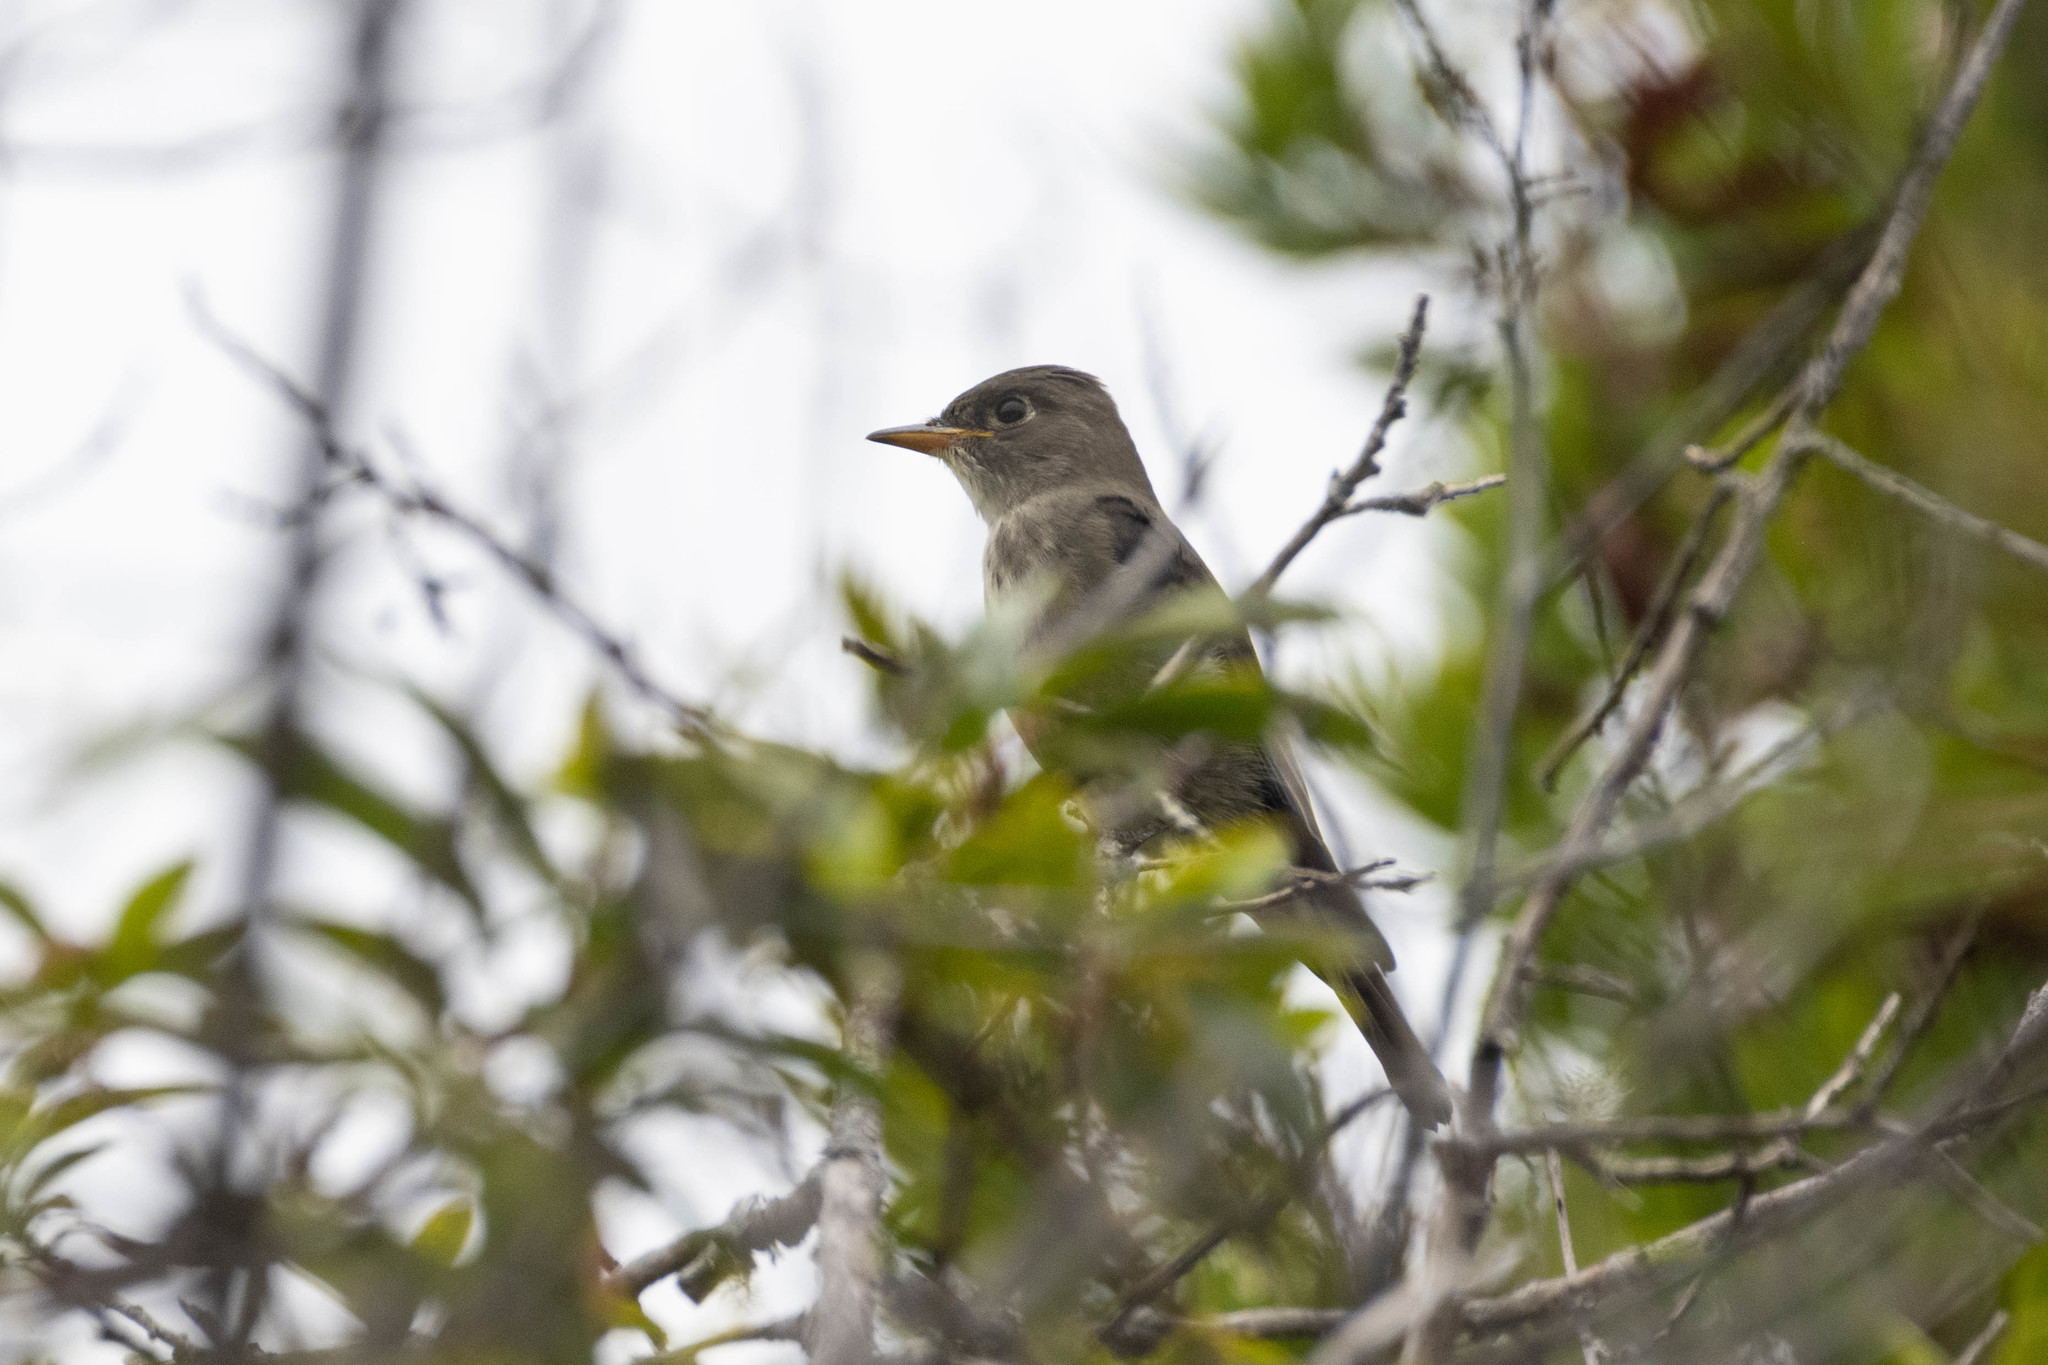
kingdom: Animalia
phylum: Chordata
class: Aves
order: Passeriformes
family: Tyrannidae
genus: Contopus
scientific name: Contopus cooperi
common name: Olive-sided flycatcher
